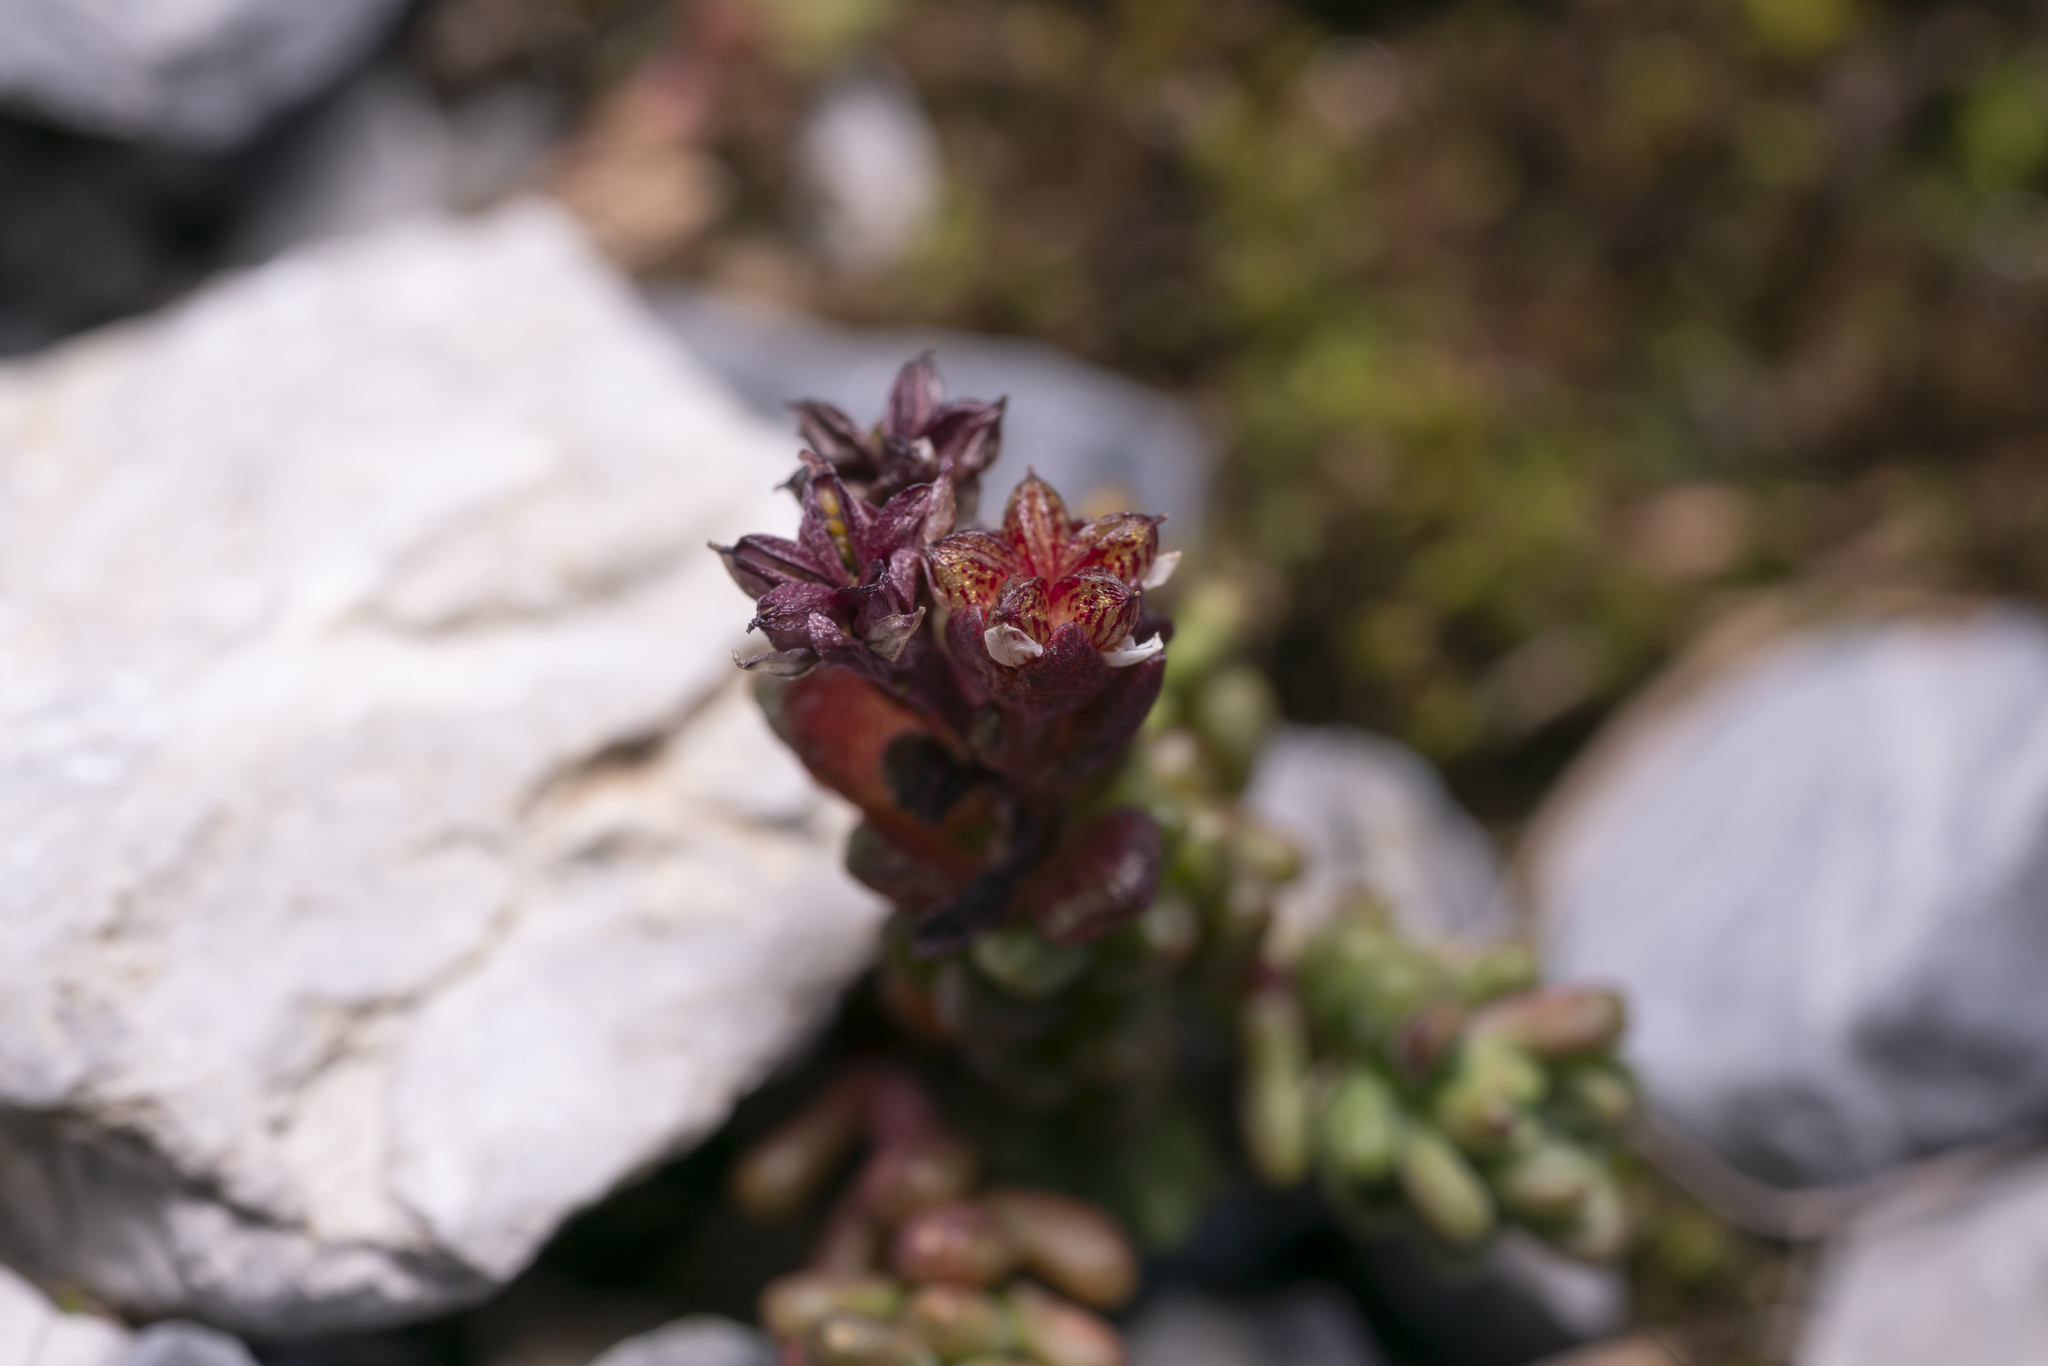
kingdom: Plantae
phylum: Tracheophyta
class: Magnoliopsida
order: Saxifragales
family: Crassulaceae
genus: Sedum
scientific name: Sedum atratum
